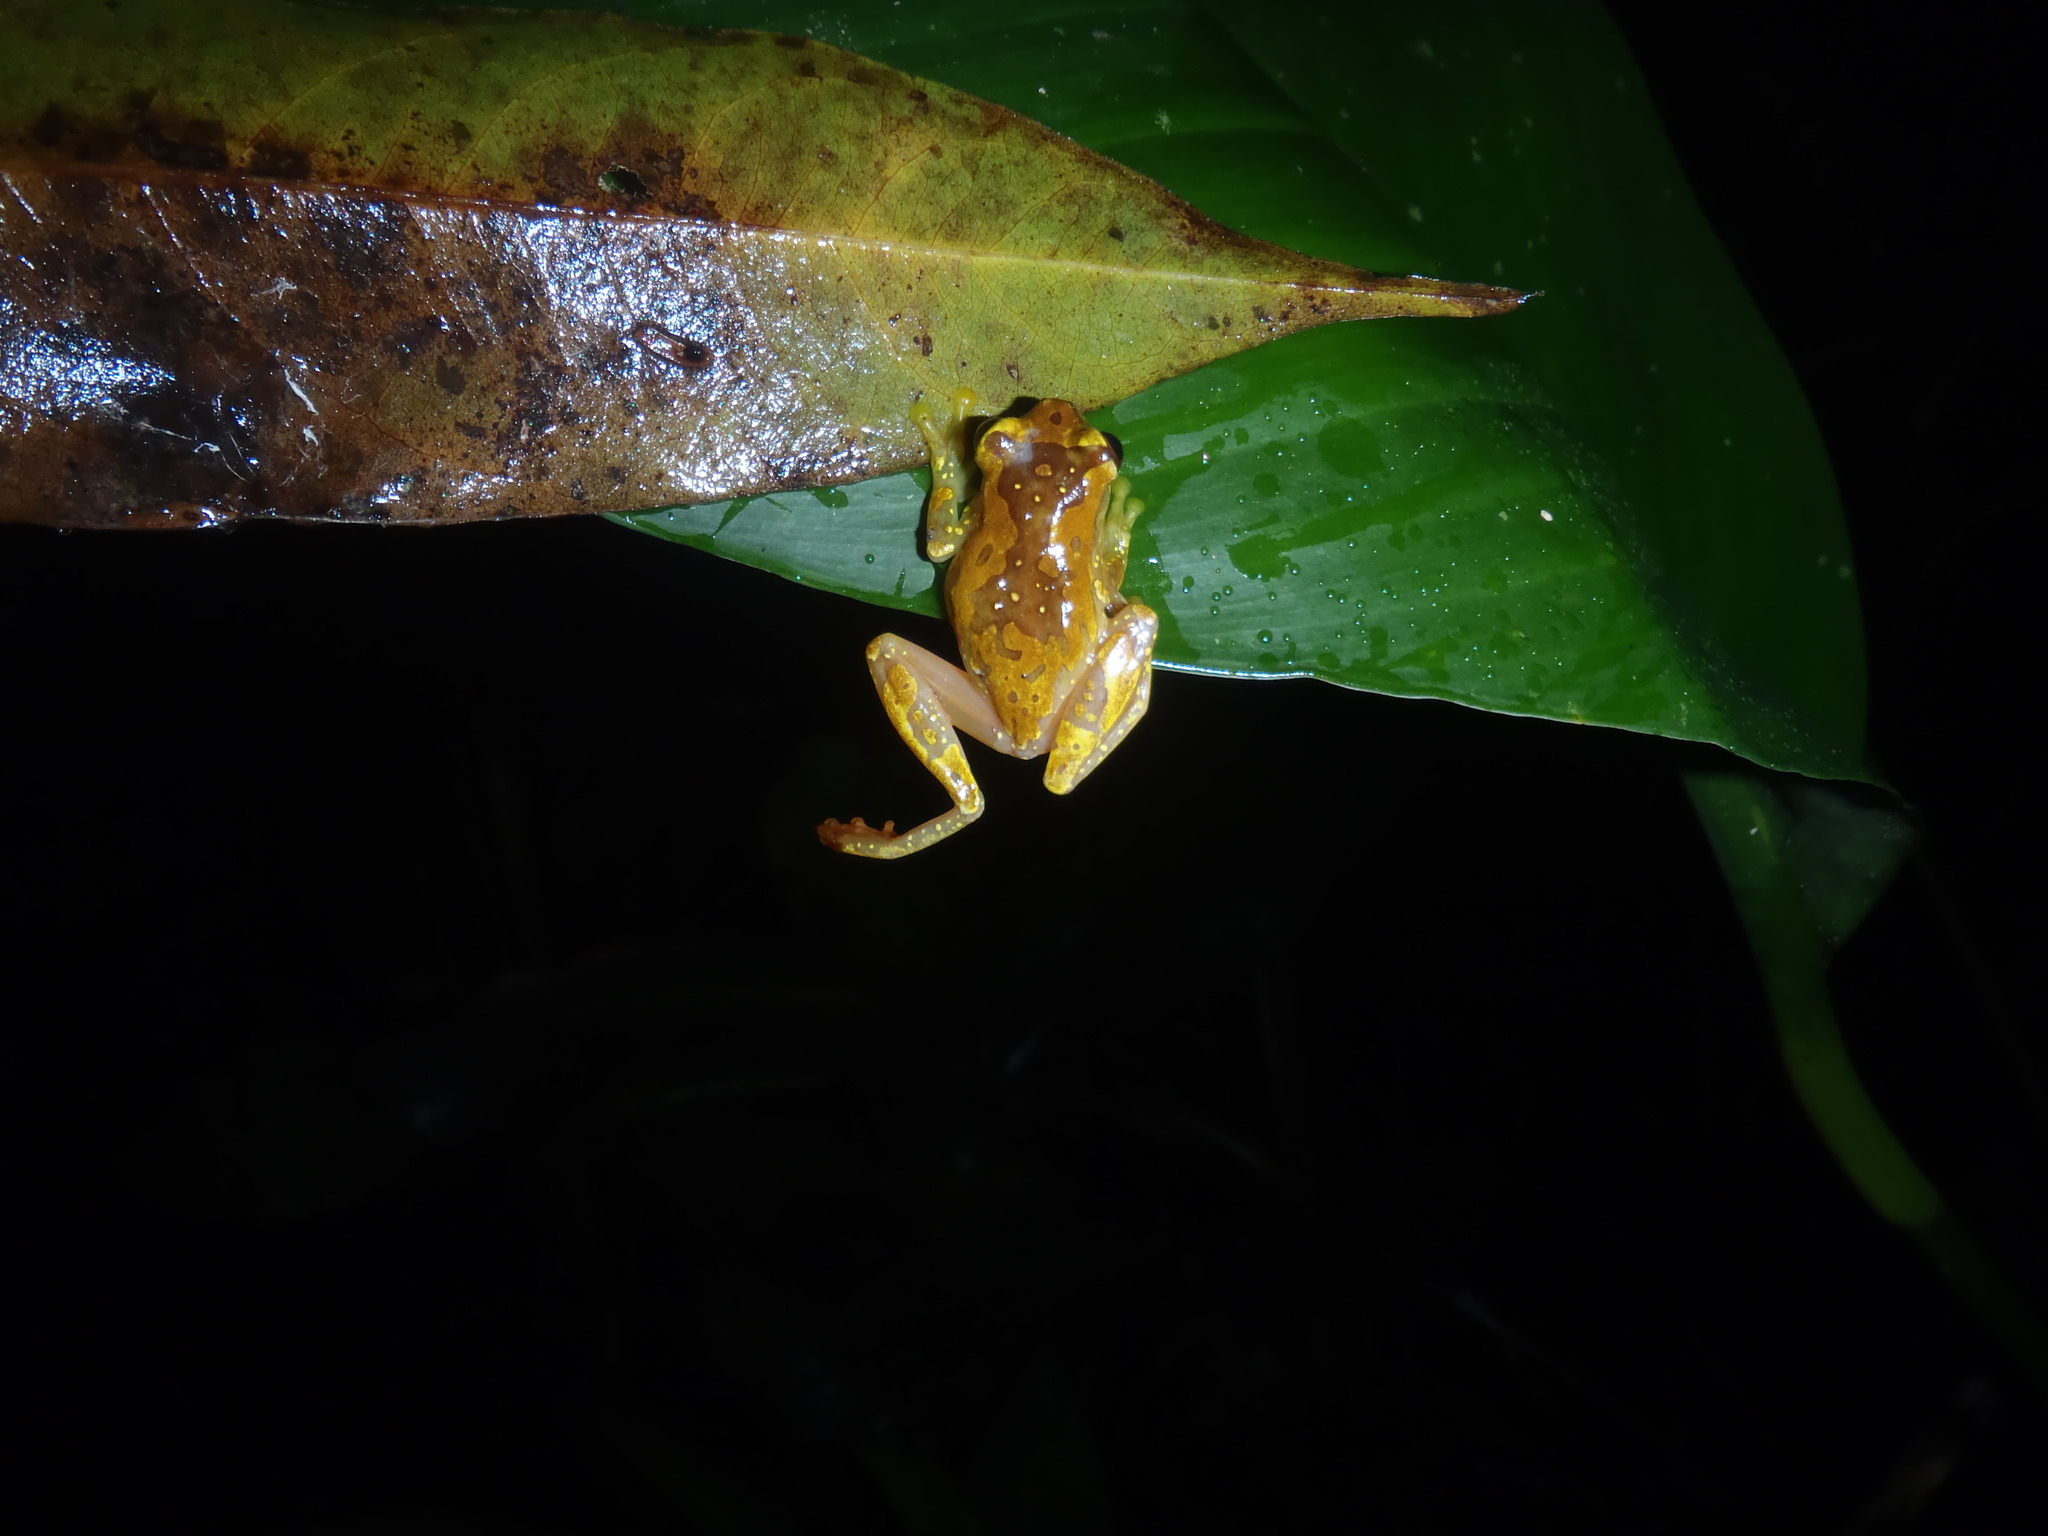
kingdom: Animalia
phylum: Chordata
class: Amphibia
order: Anura
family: Hylidae
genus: Dendropsophus
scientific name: Dendropsophus ebraccatus
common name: Hourglass treefrog
